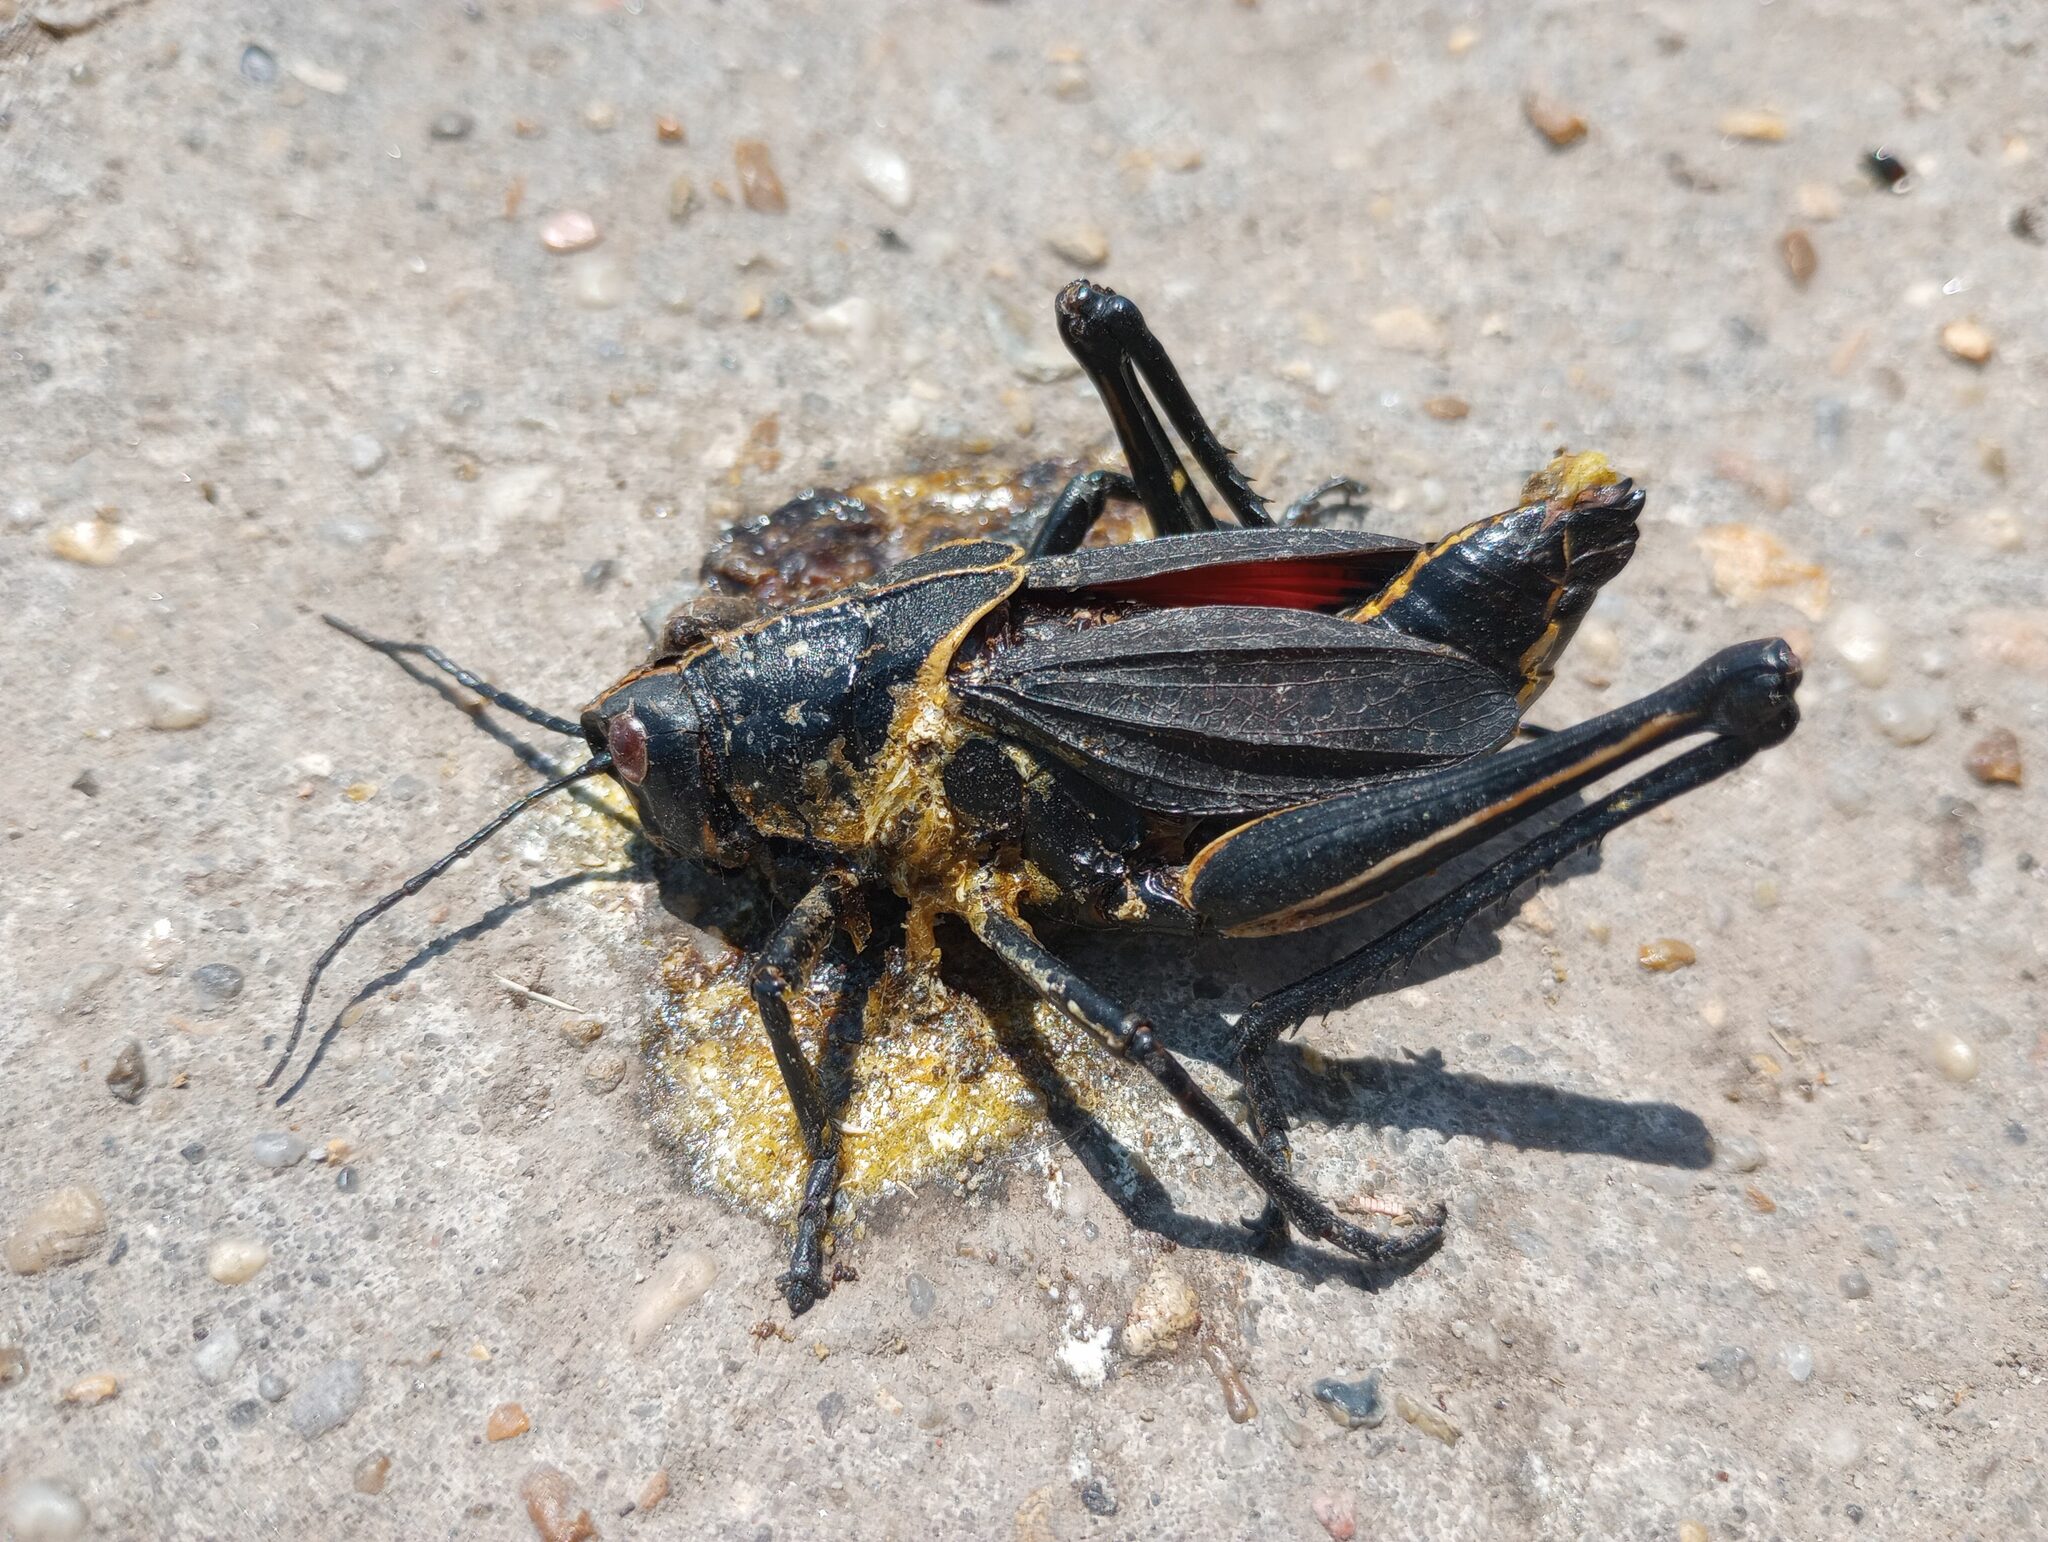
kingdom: Animalia
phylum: Arthropoda
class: Insecta
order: Orthoptera
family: Romaleidae
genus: Romalea
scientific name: Romalea microptera
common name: Eastern lubber grasshopper
